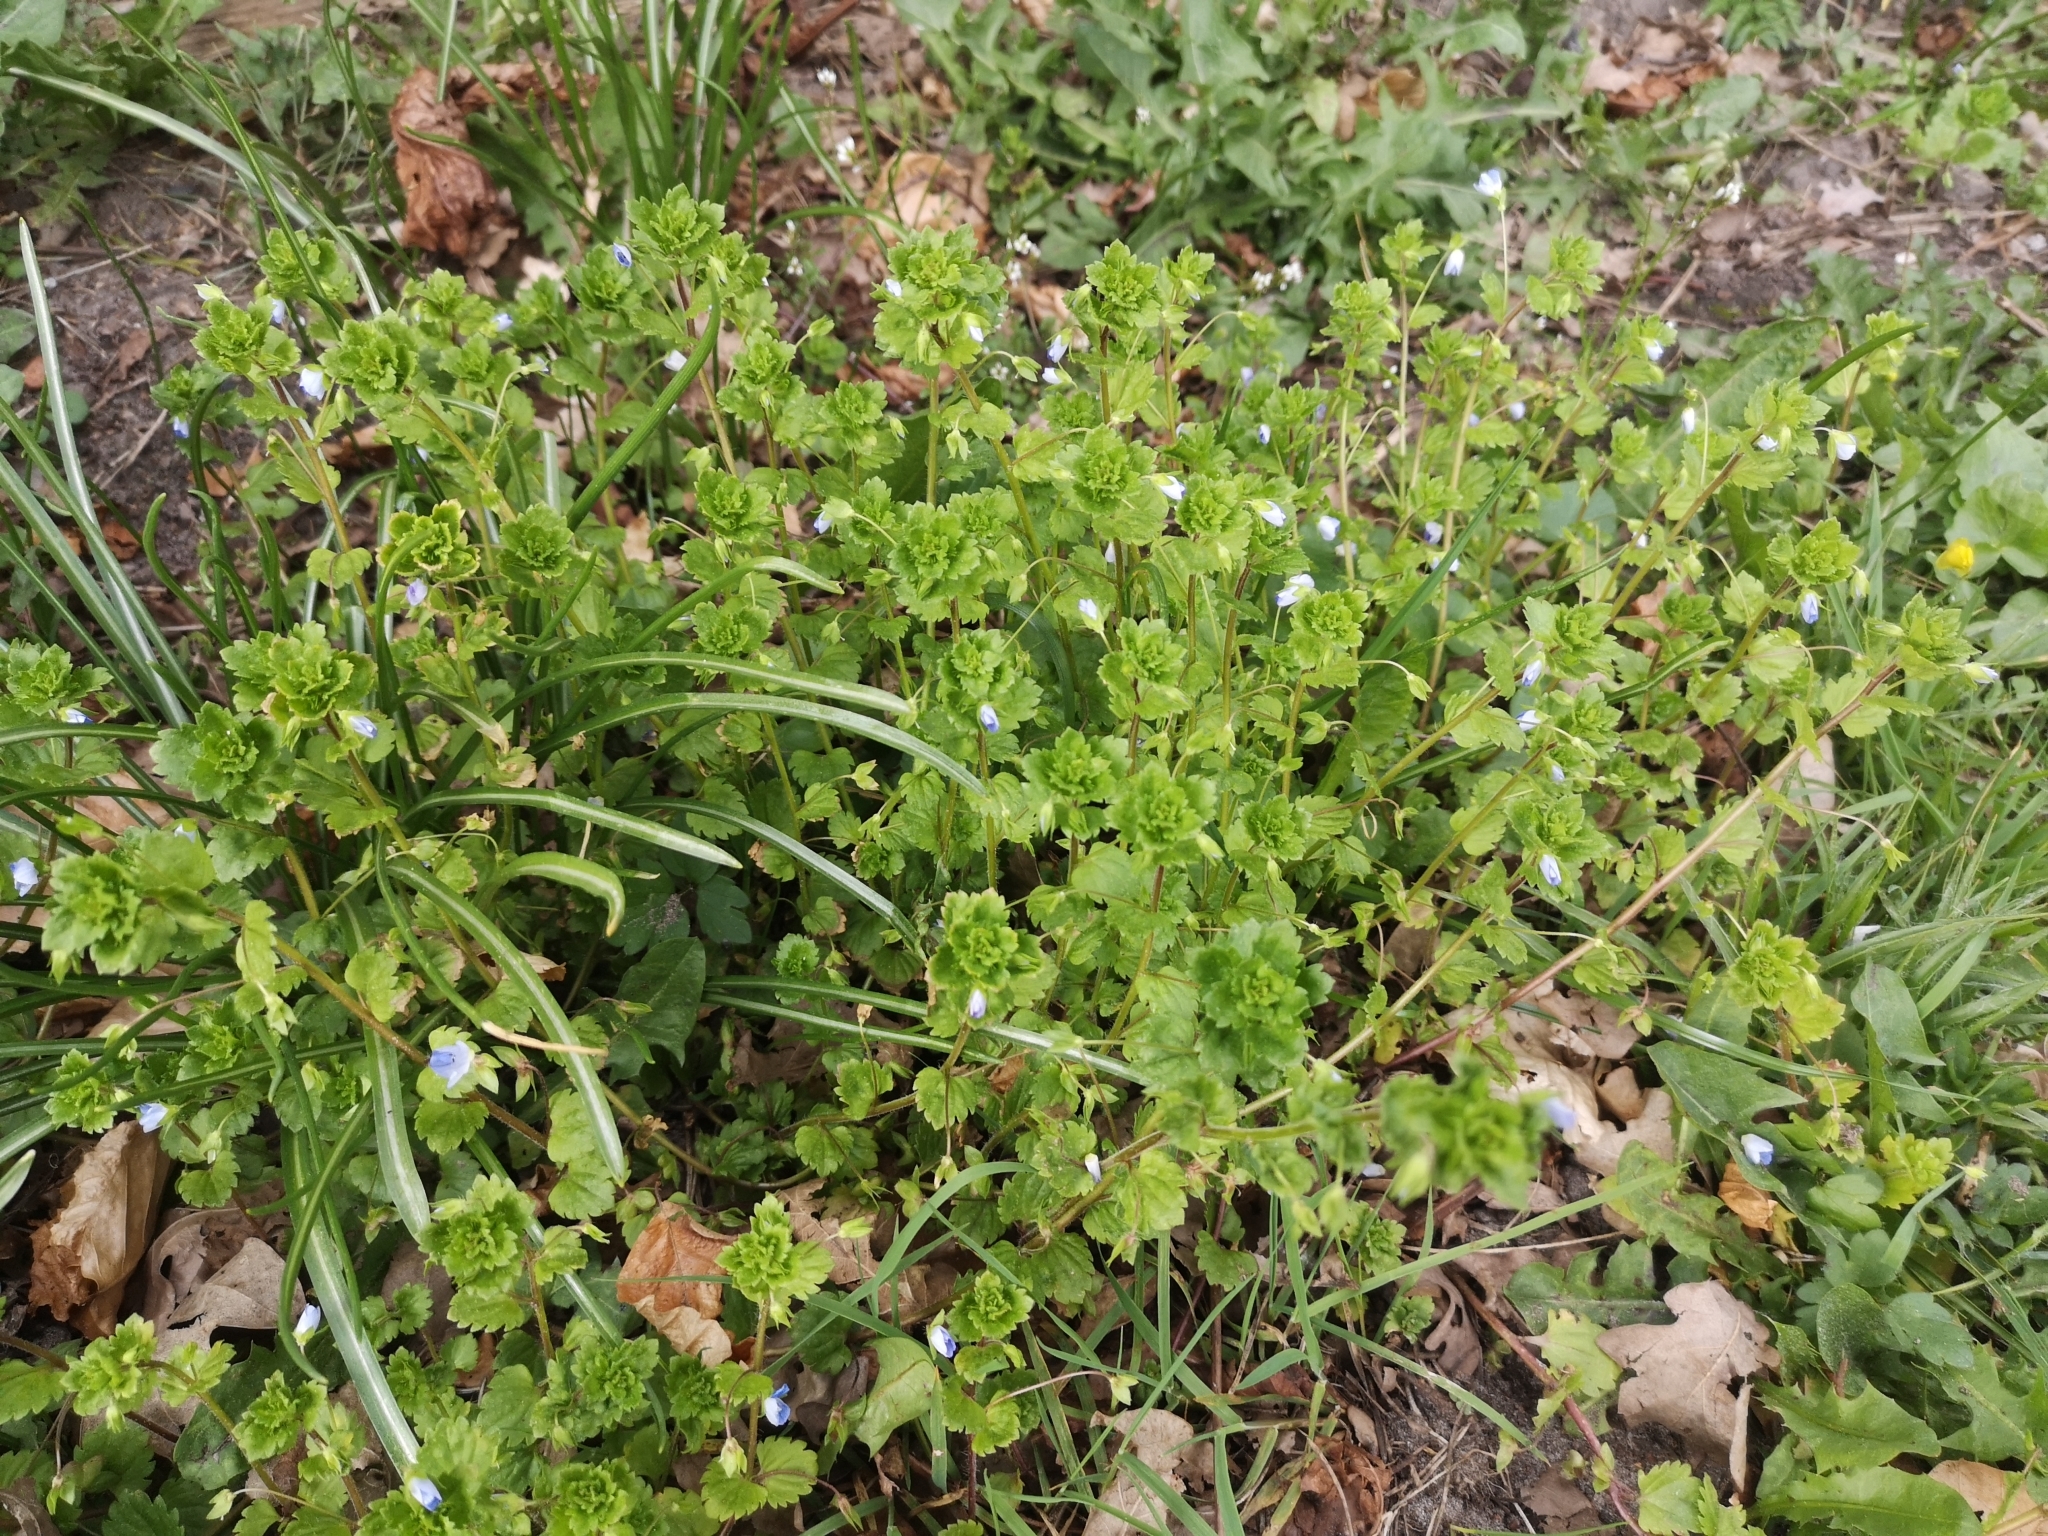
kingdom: Plantae
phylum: Tracheophyta
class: Magnoliopsida
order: Lamiales
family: Plantaginaceae
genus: Veronica
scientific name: Veronica persica
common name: Common field-speedwell
